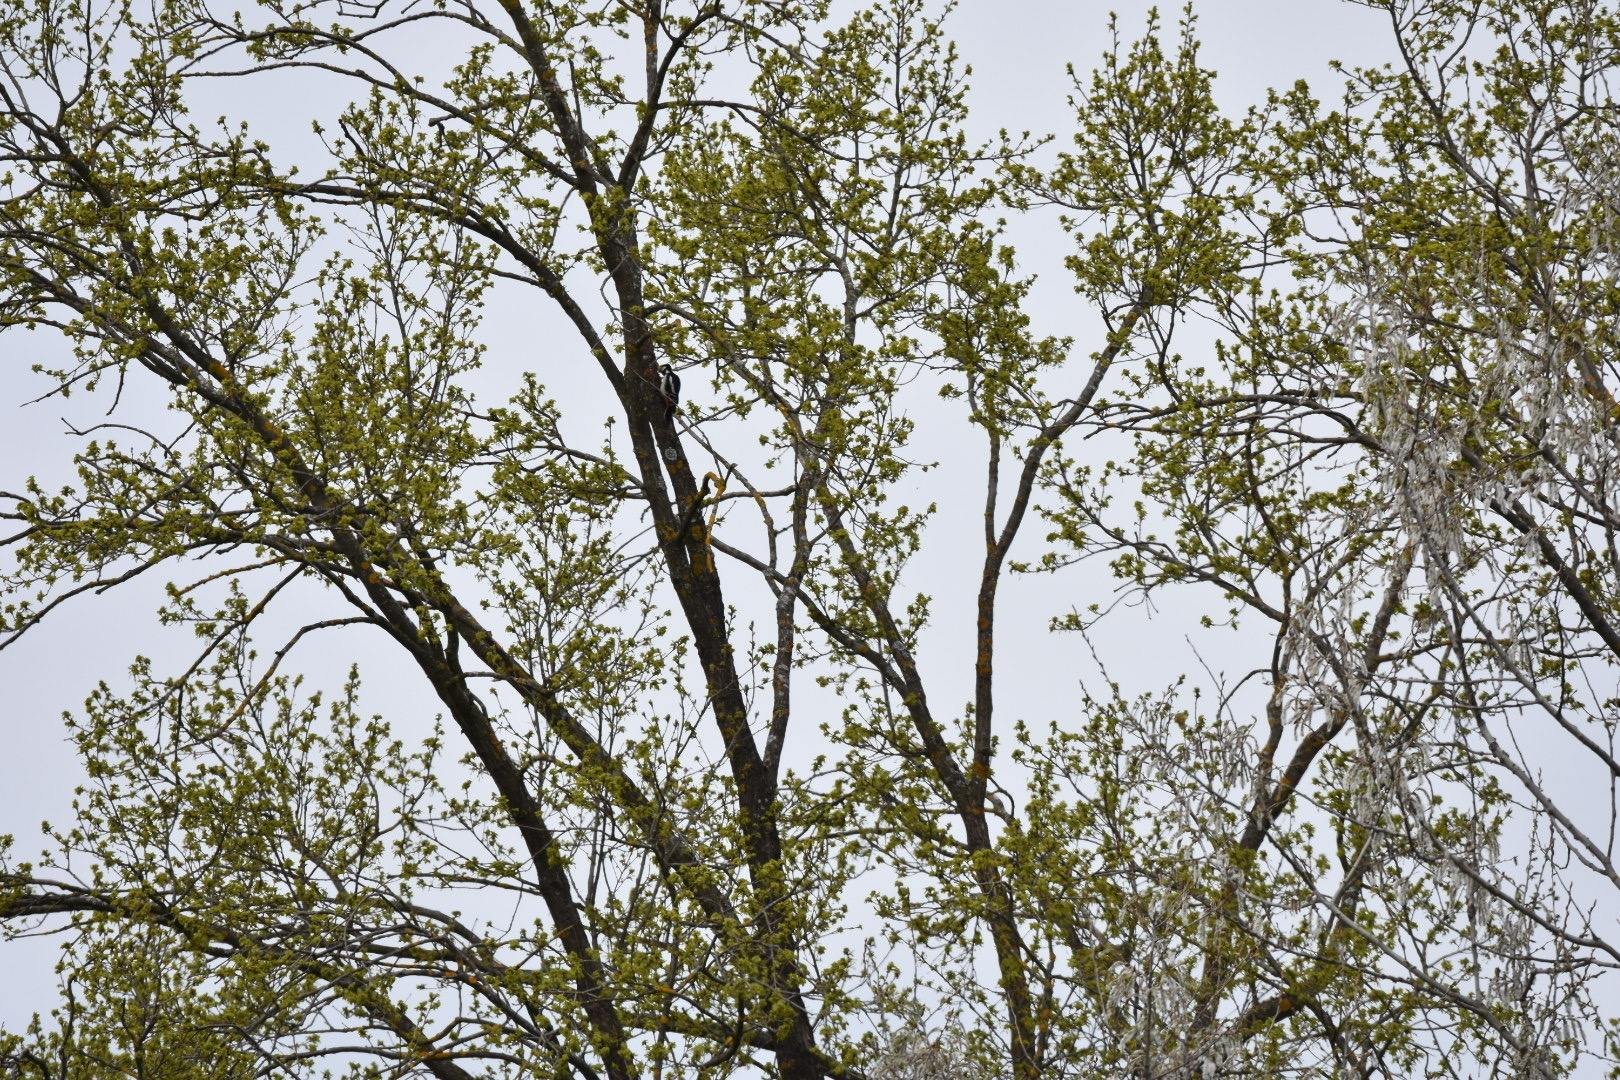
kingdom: Animalia
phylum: Chordata
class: Aves
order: Piciformes
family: Picidae
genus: Dendrocopos
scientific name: Dendrocopos major
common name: Great spotted woodpecker
